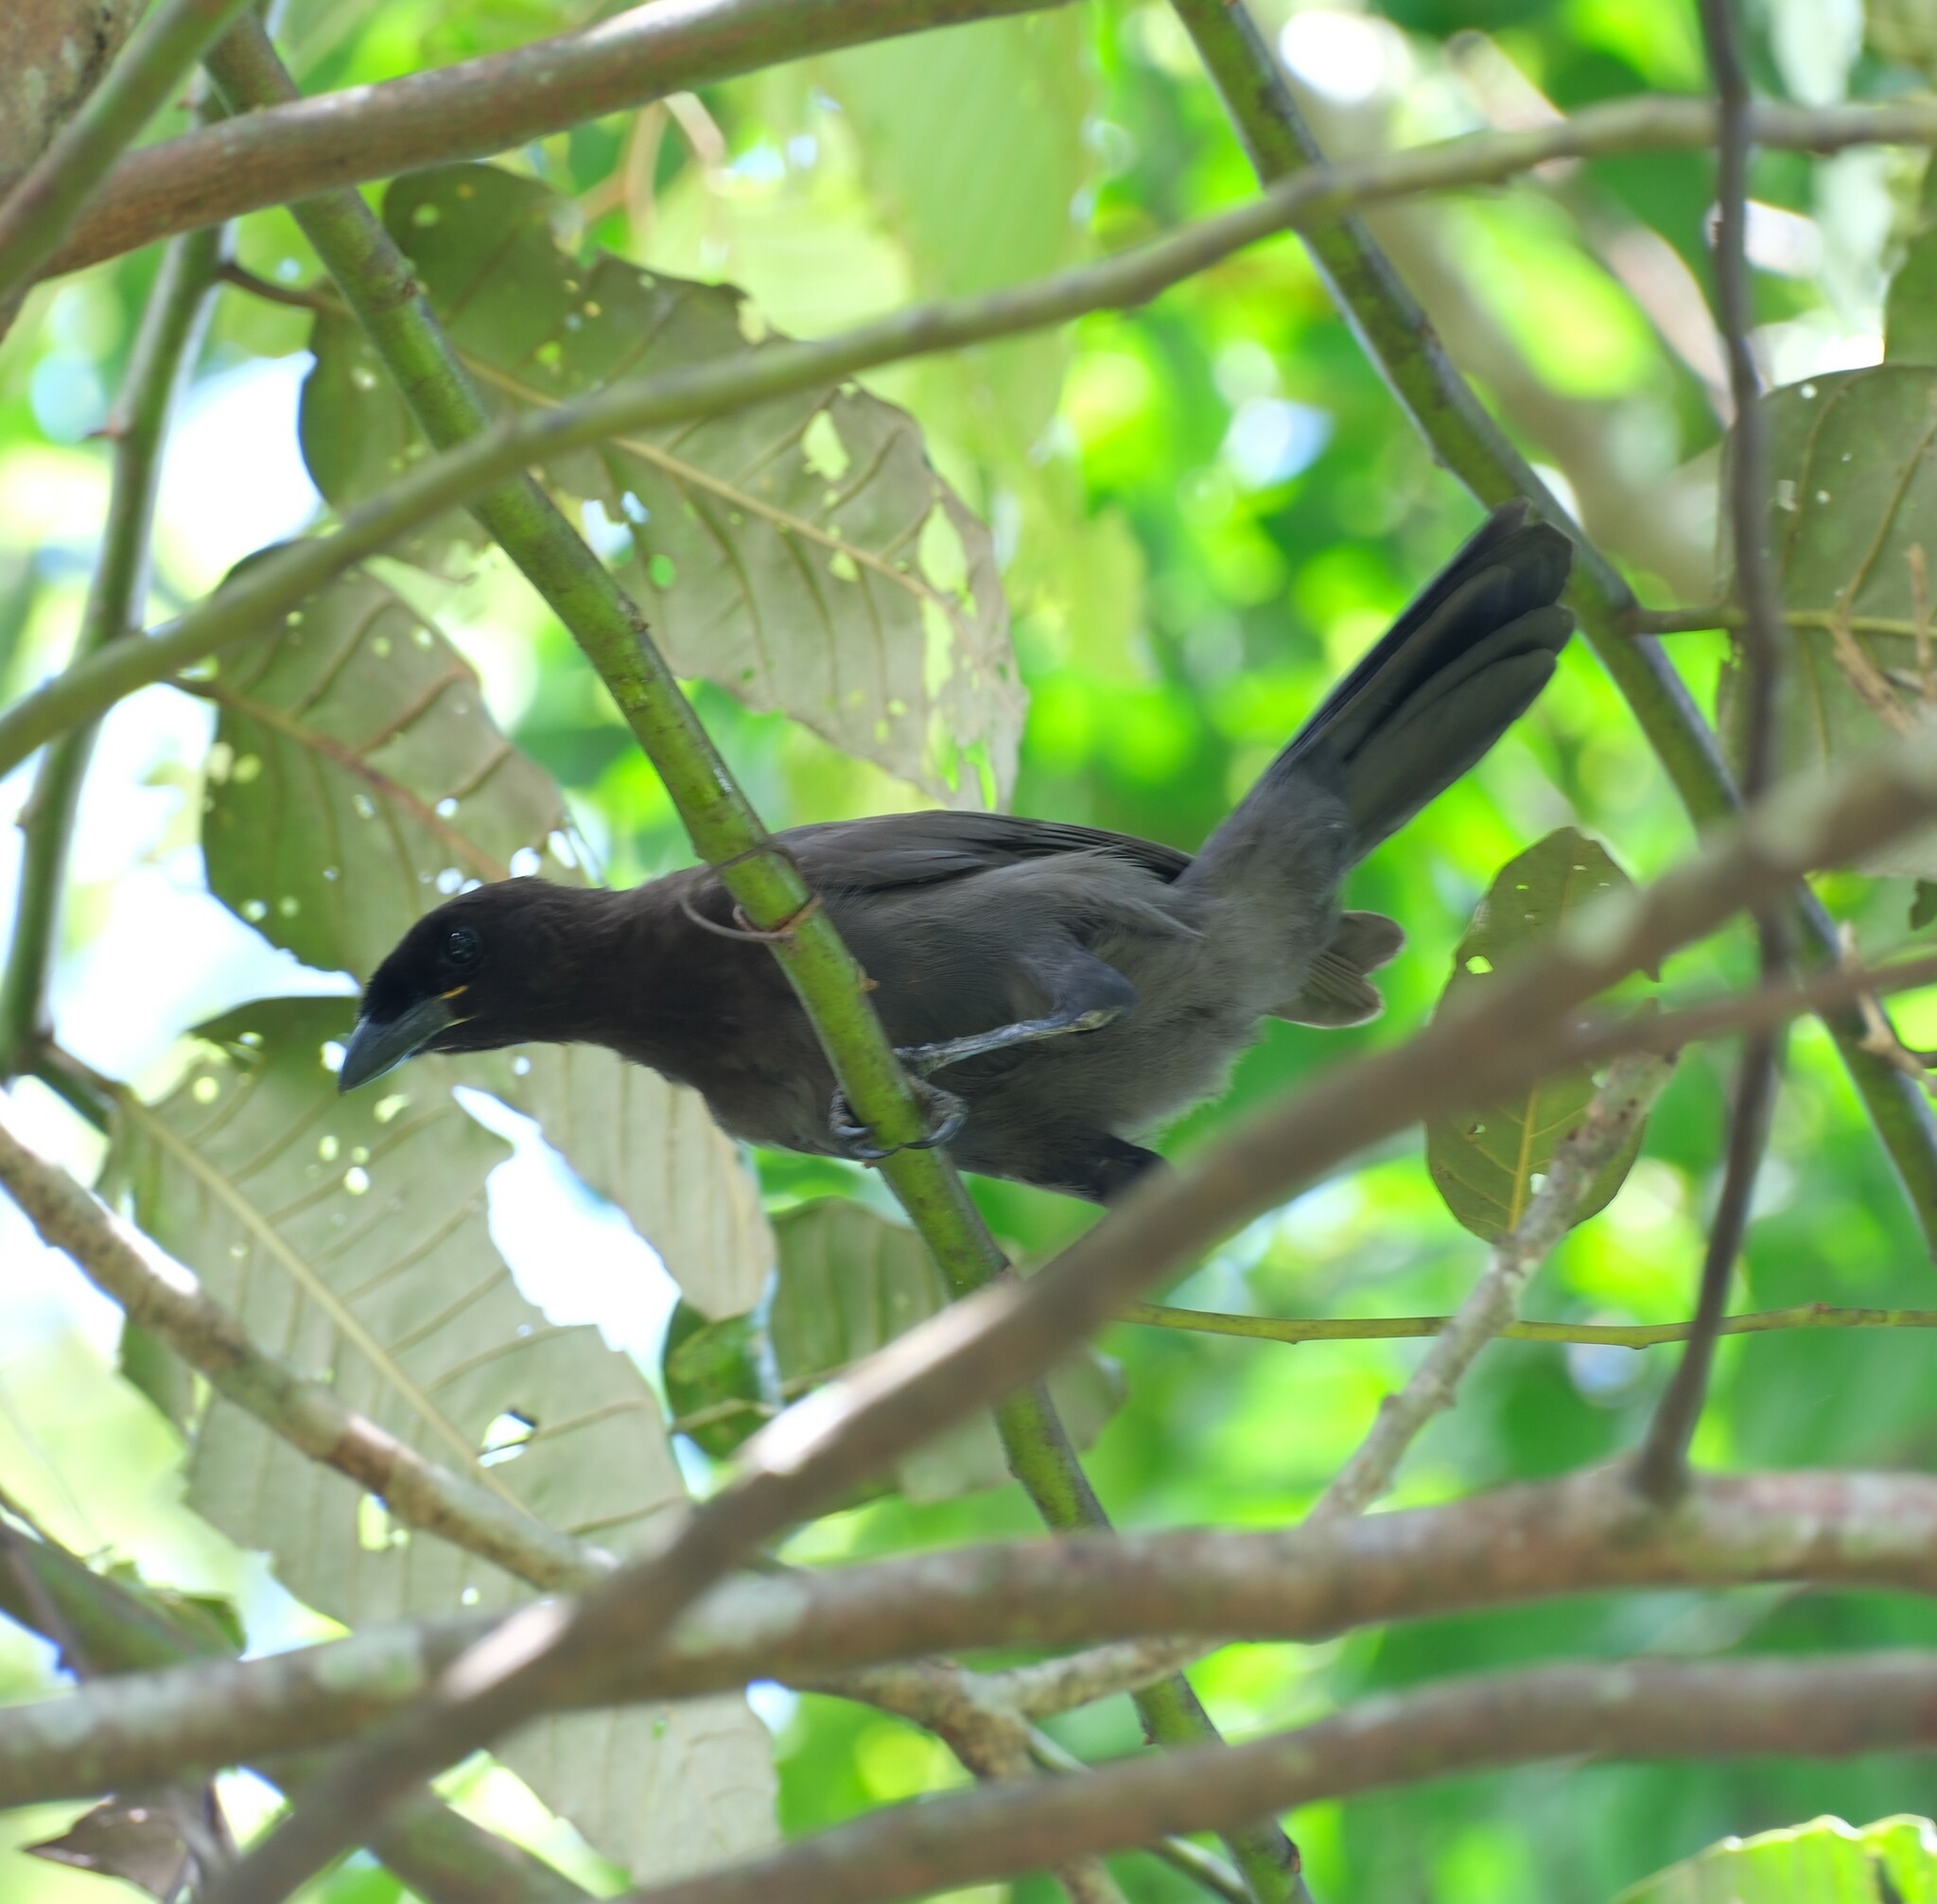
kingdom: Animalia
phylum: Chordata
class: Aves
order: Passeriformes
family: Corvidae
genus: Cyanocorax
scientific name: Cyanocorax cyanomelas
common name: Purplish jay
